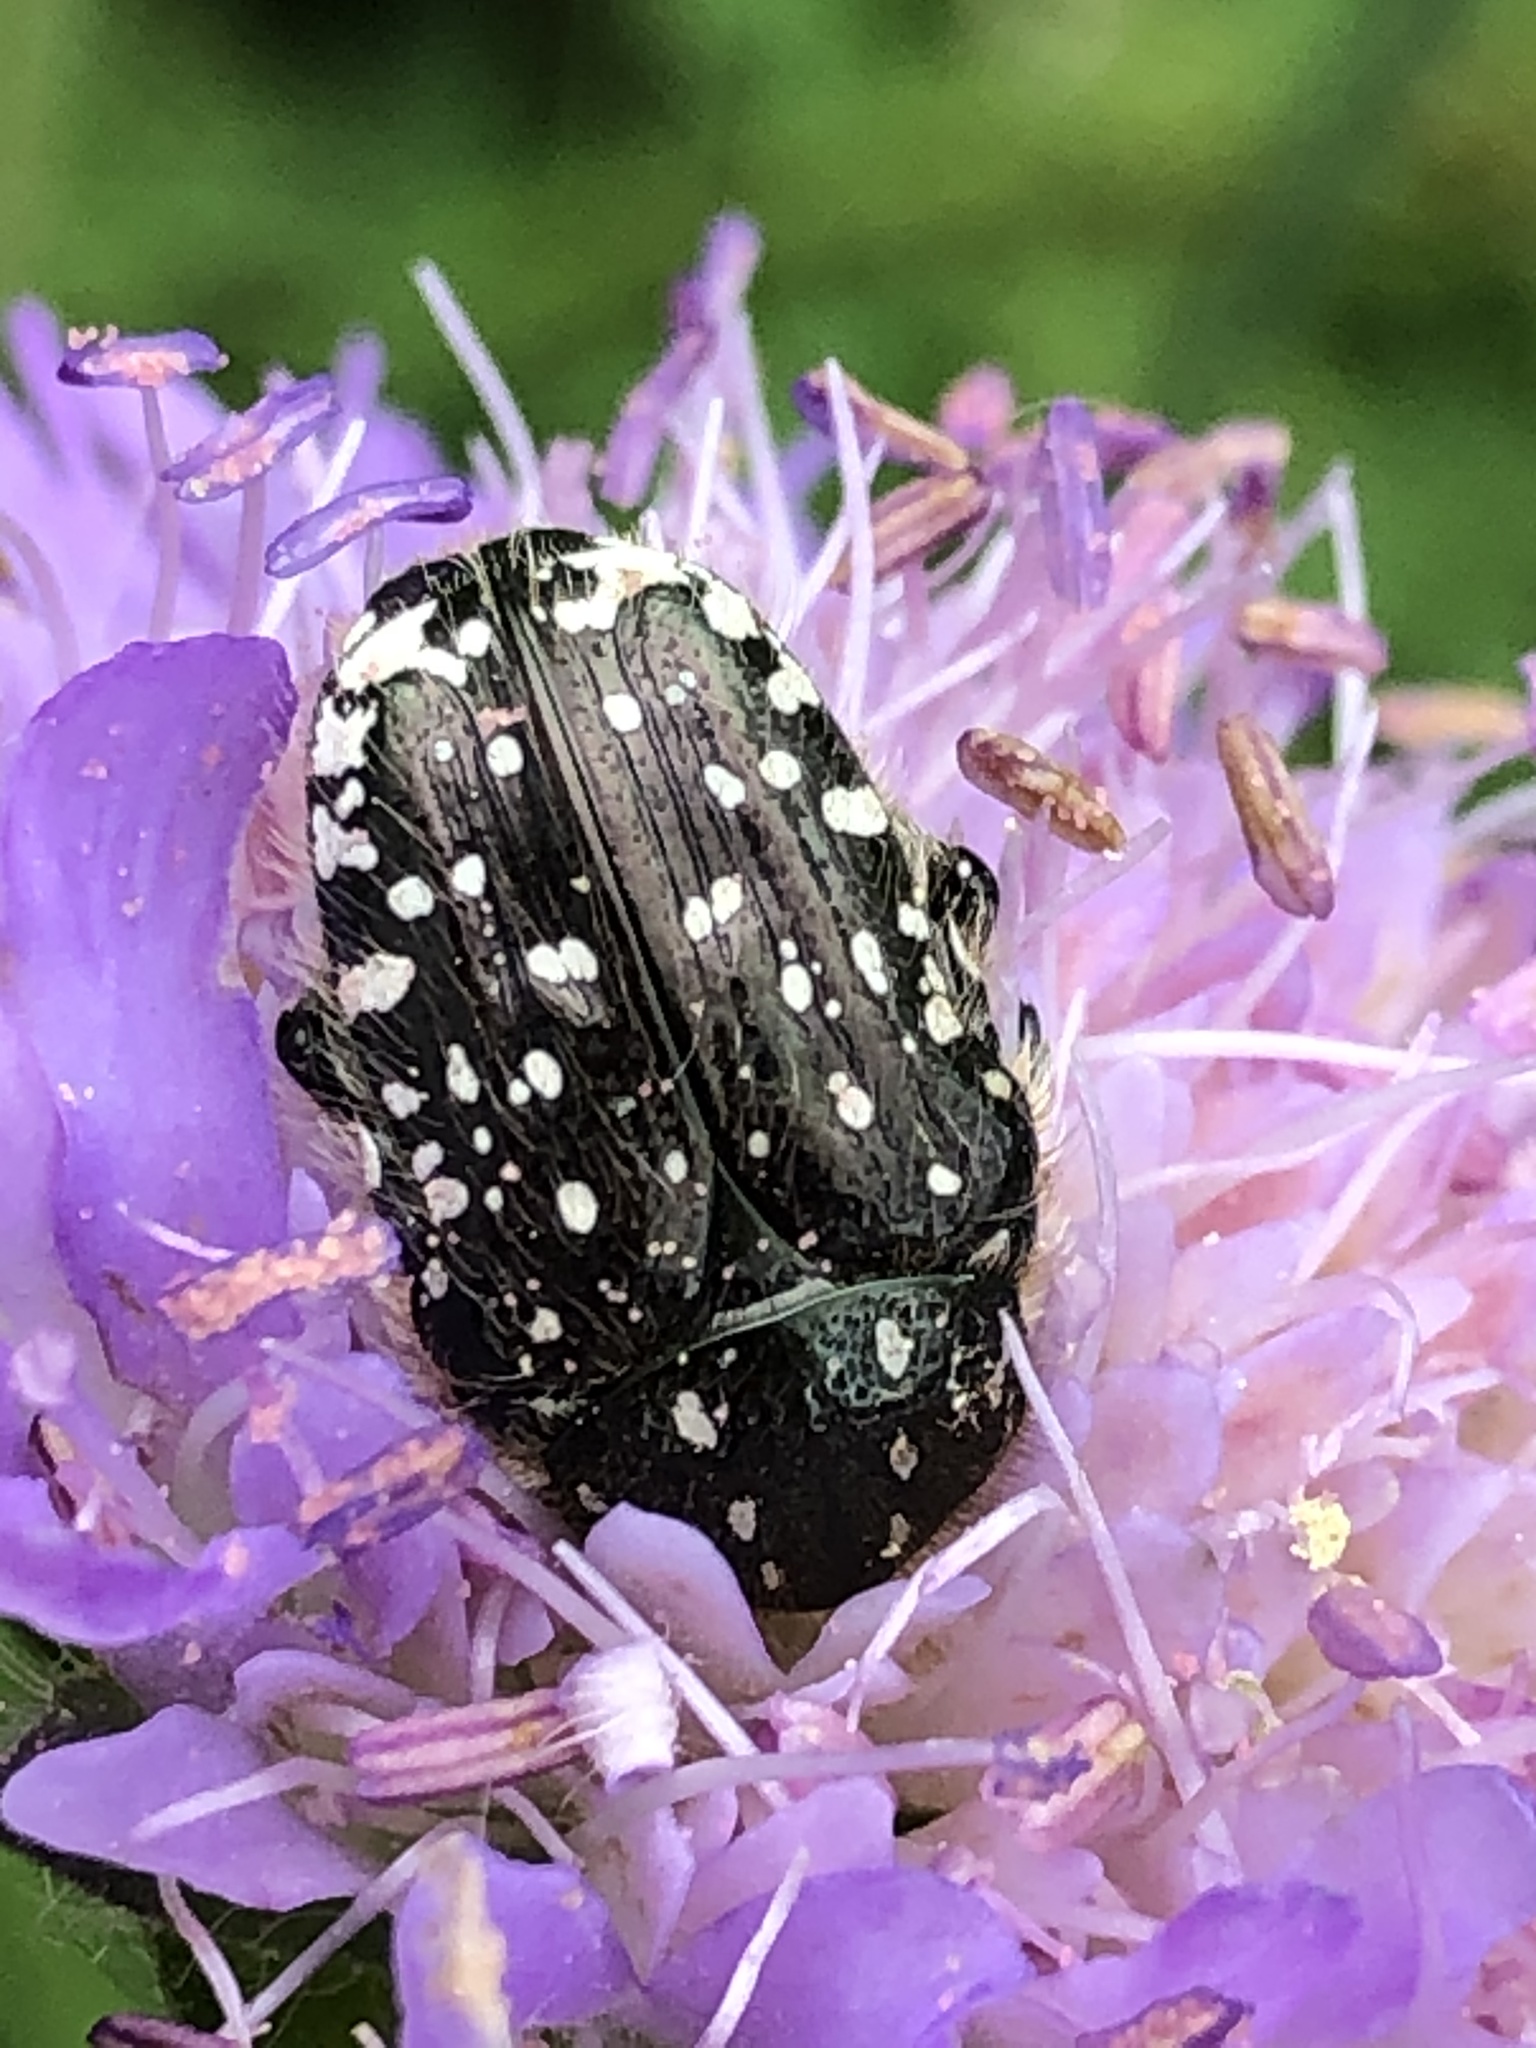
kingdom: Animalia
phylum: Arthropoda
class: Insecta
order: Coleoptera
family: Scarabaeidae
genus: Oxythyrea
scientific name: Oxythyrea funesta
